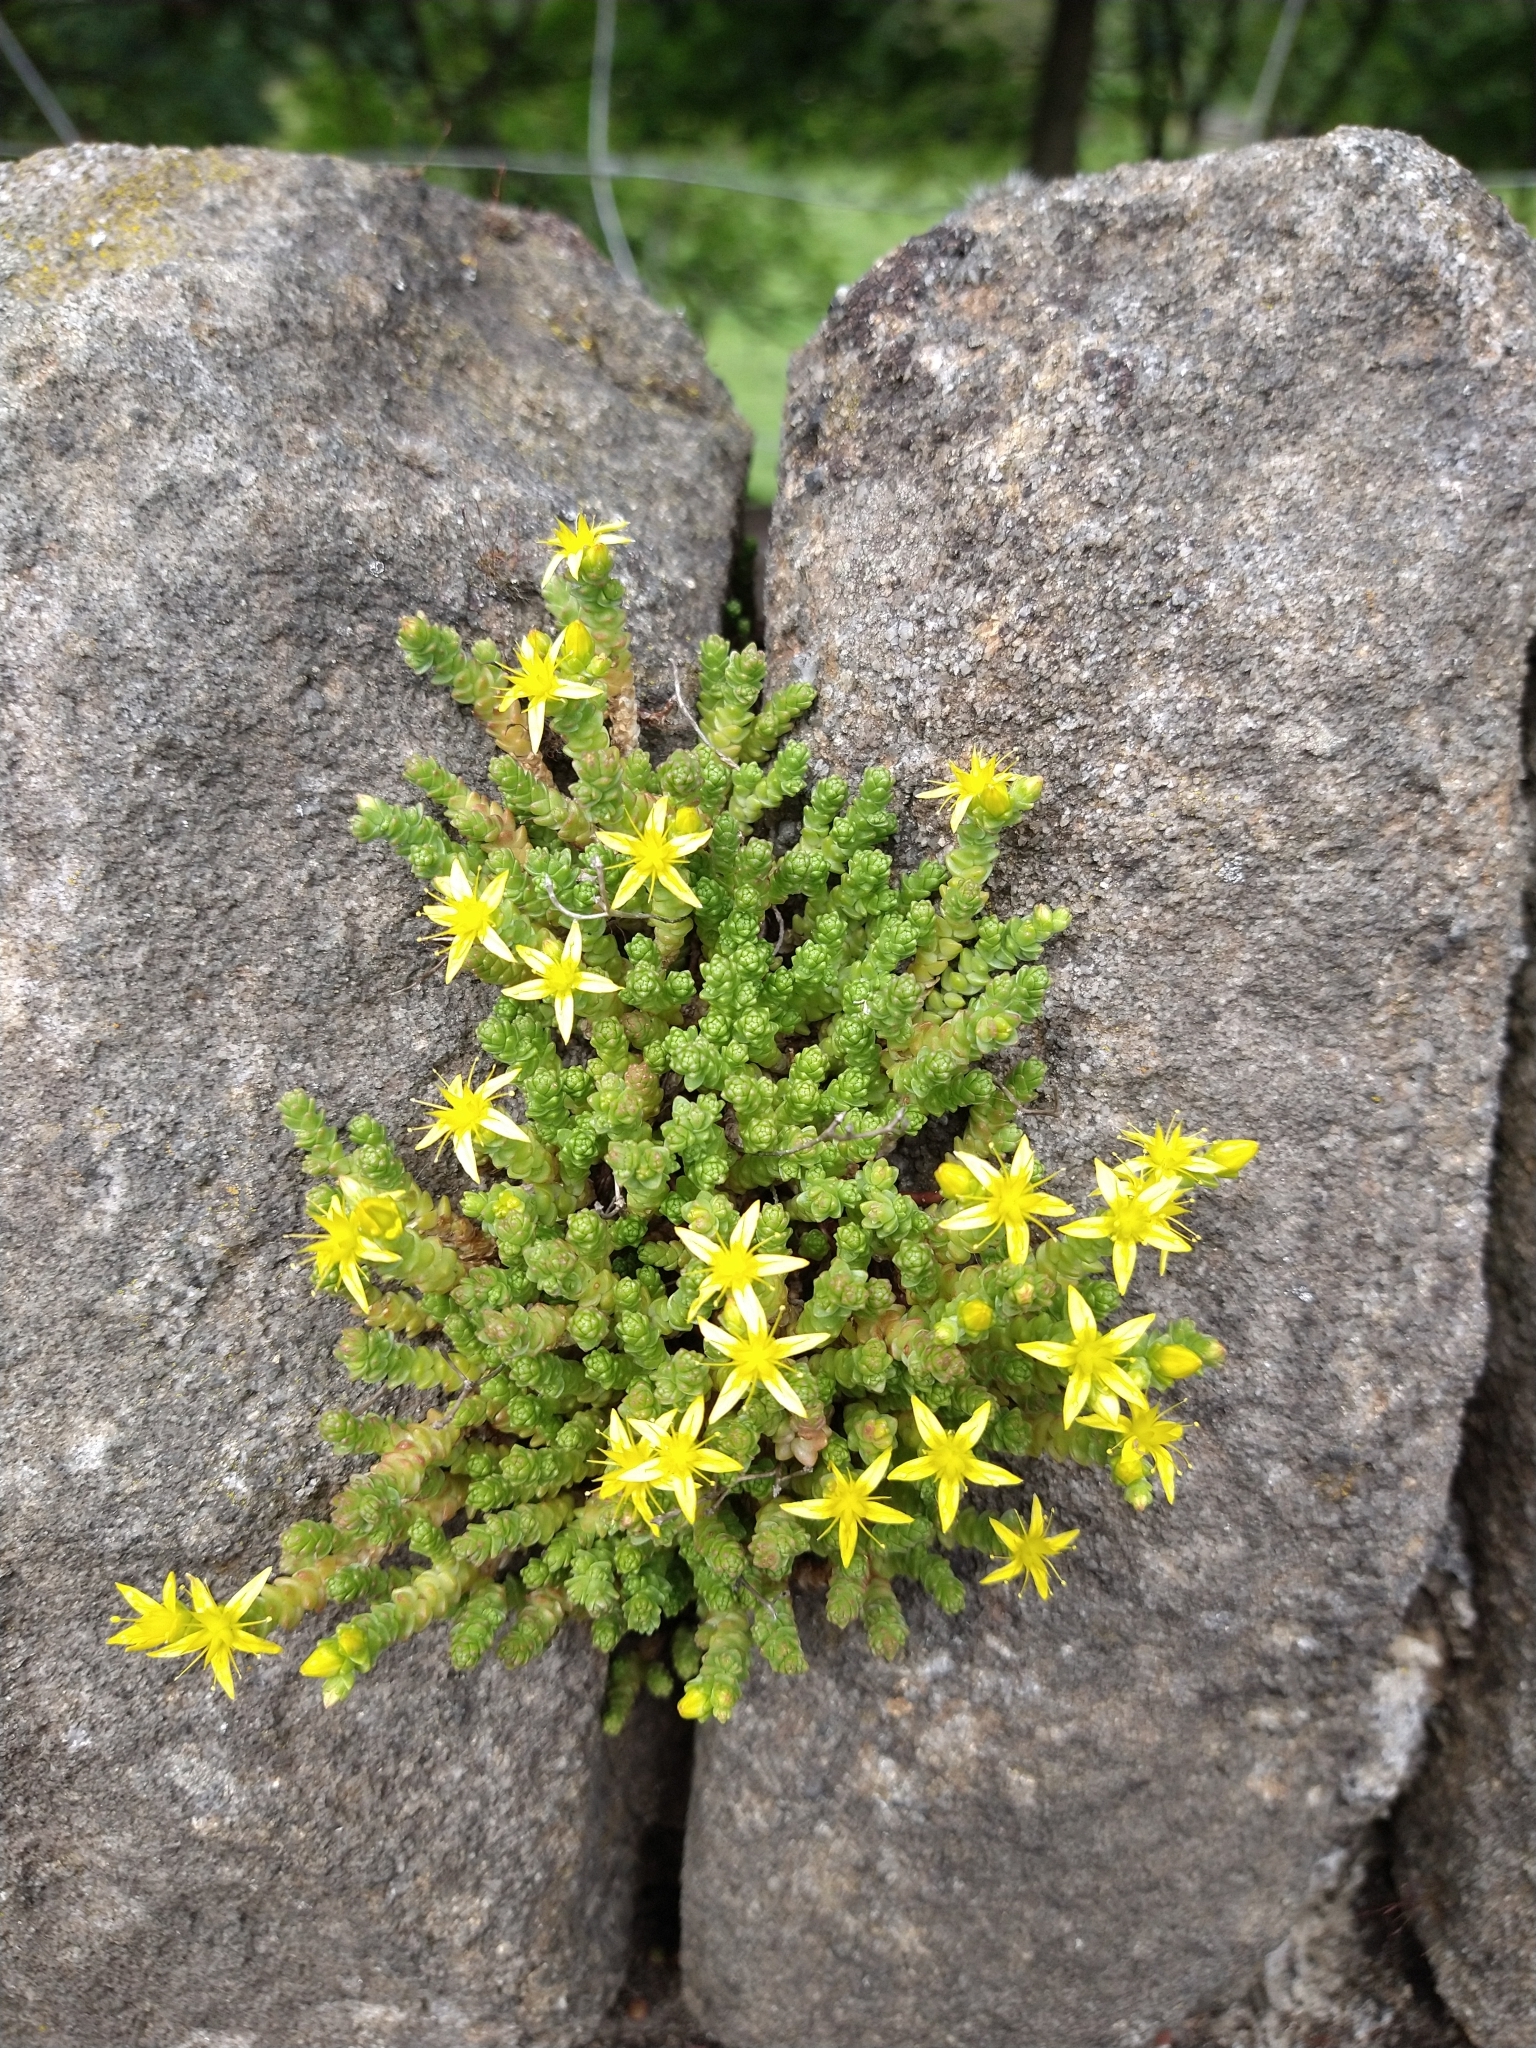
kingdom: Plantae
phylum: Tracheophyta
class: Magnoliopsida
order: Saxifragales
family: Crassulaceae
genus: Sedum
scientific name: Sedum acre
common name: Biting stonecrop
